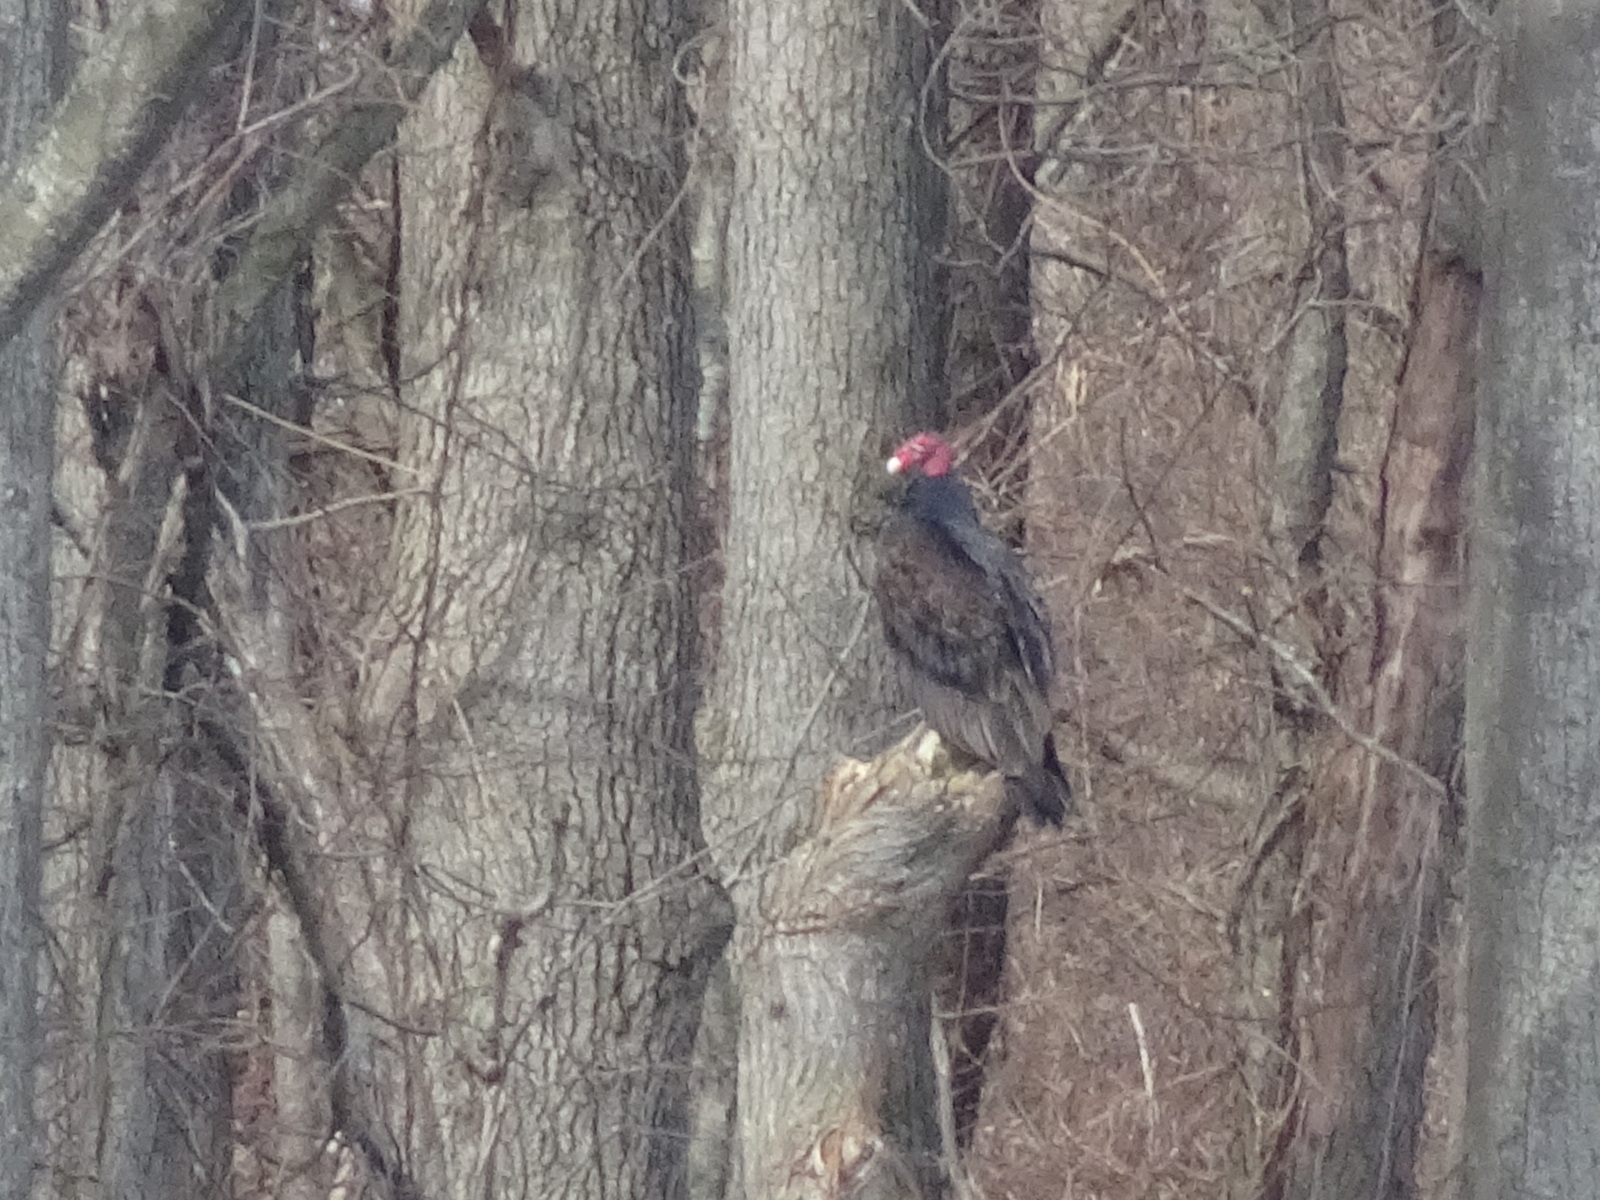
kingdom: Animalia
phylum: Chordata
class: Aves
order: Accipitriformes
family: Cathartidae
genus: Cathartes
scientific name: Cathartes aura
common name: Turkey vulture
